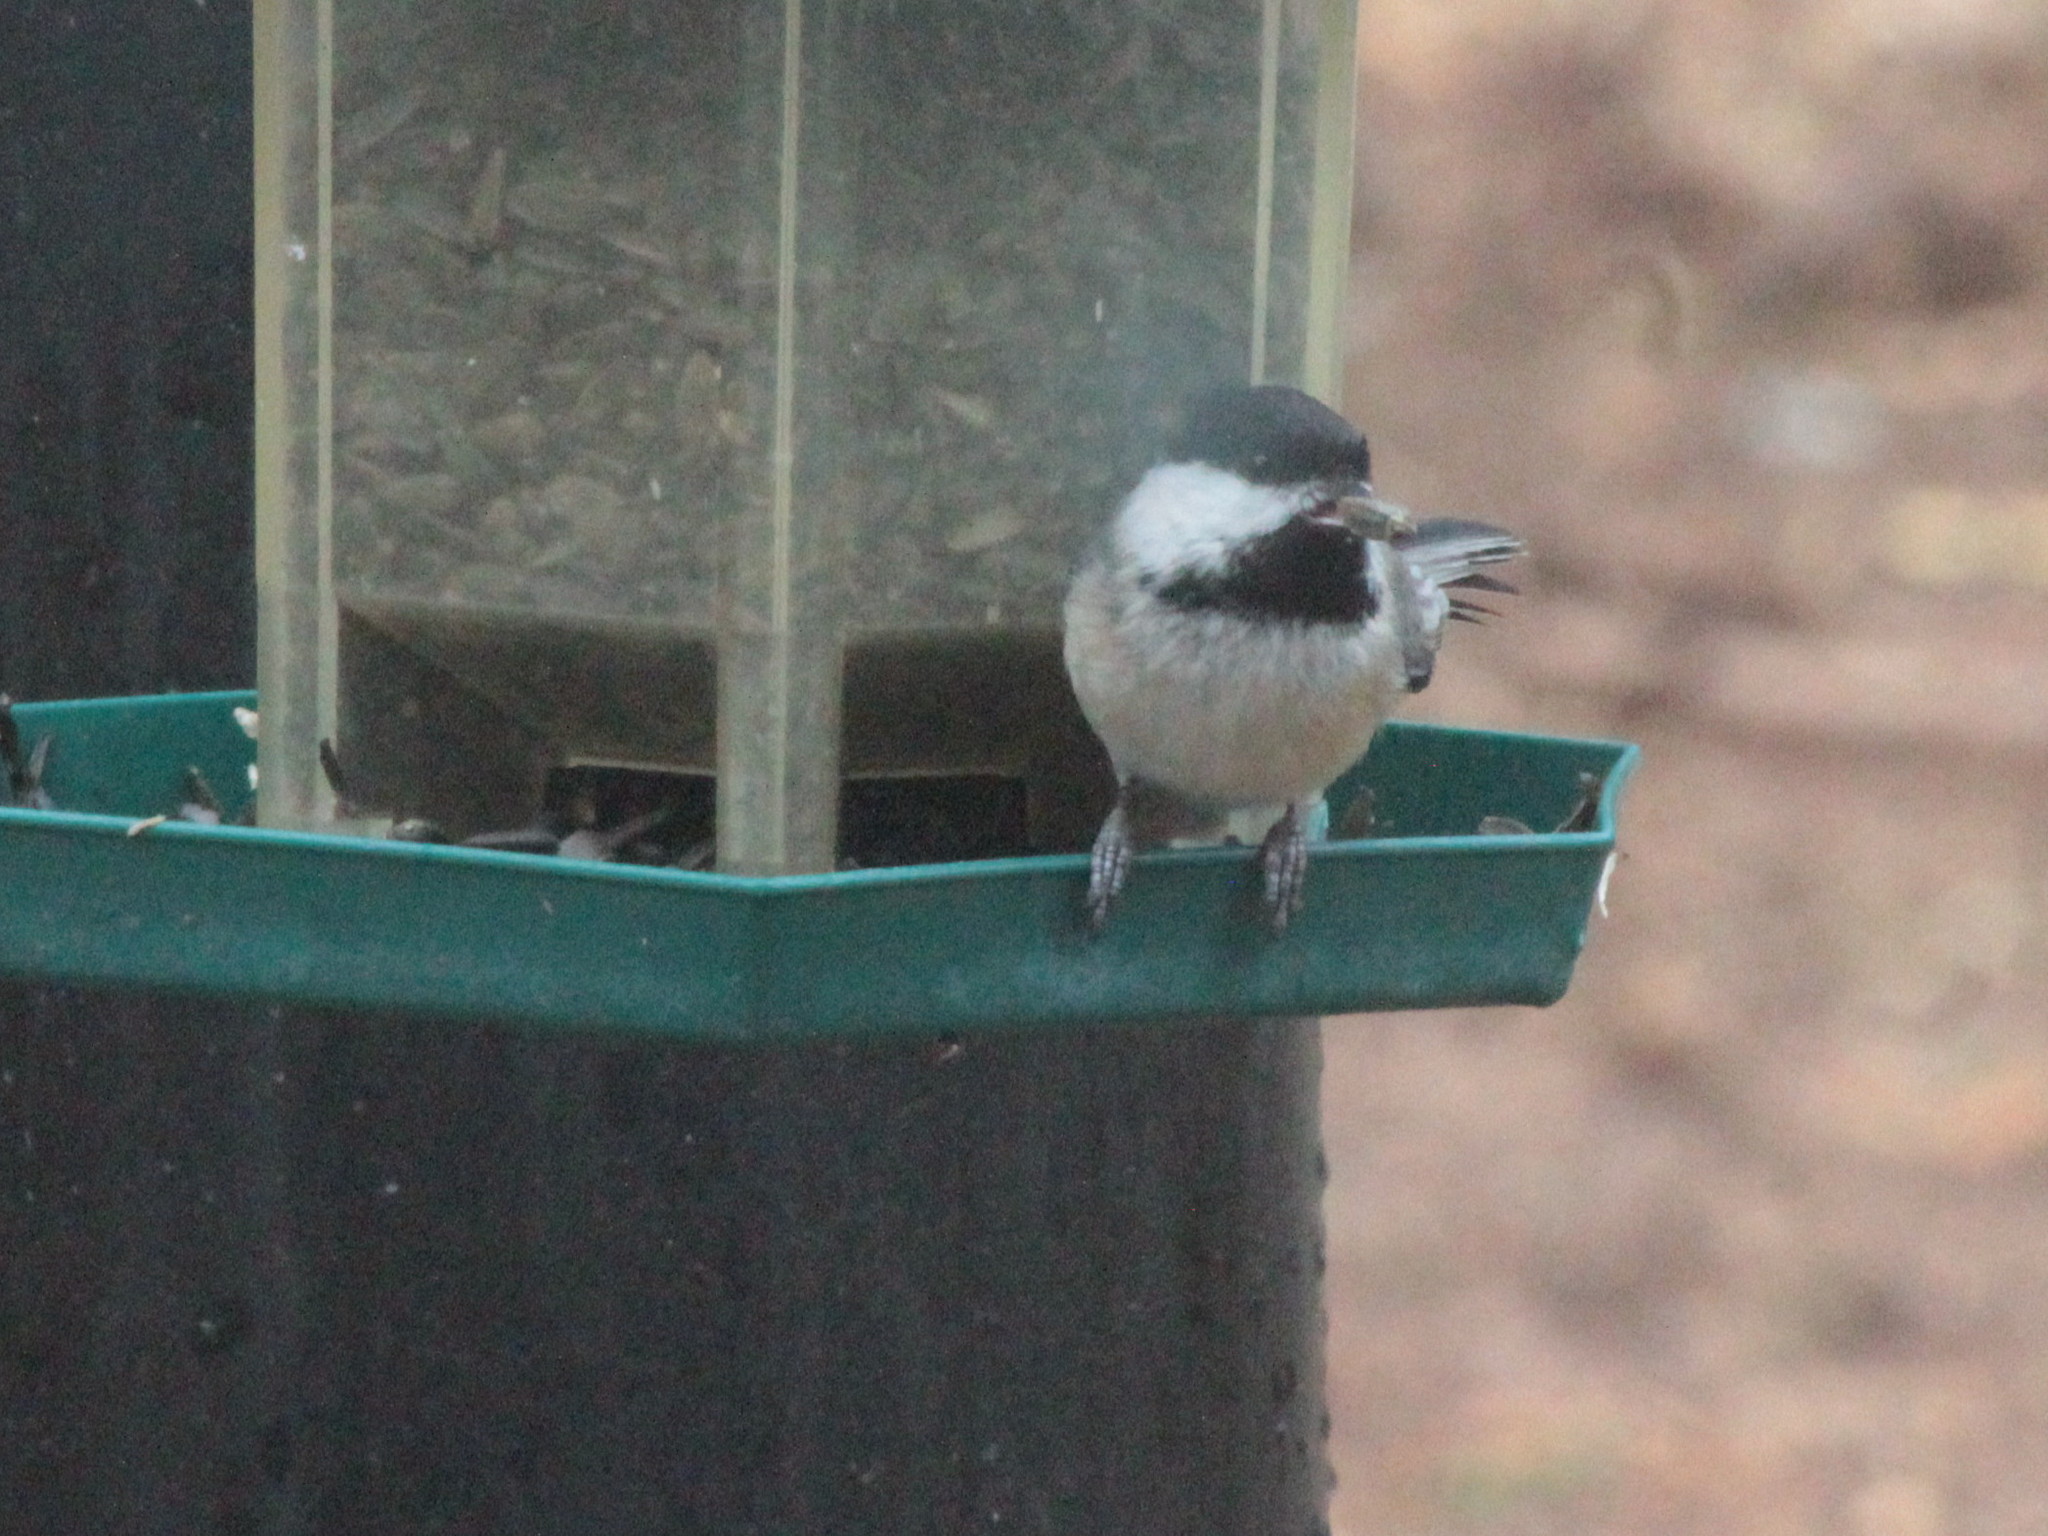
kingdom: Animalia
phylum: Chordata
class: Aves
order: Passeriformes
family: Paridae
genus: Poecile
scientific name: Poecile atricapillus
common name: Black-capped chickadee
